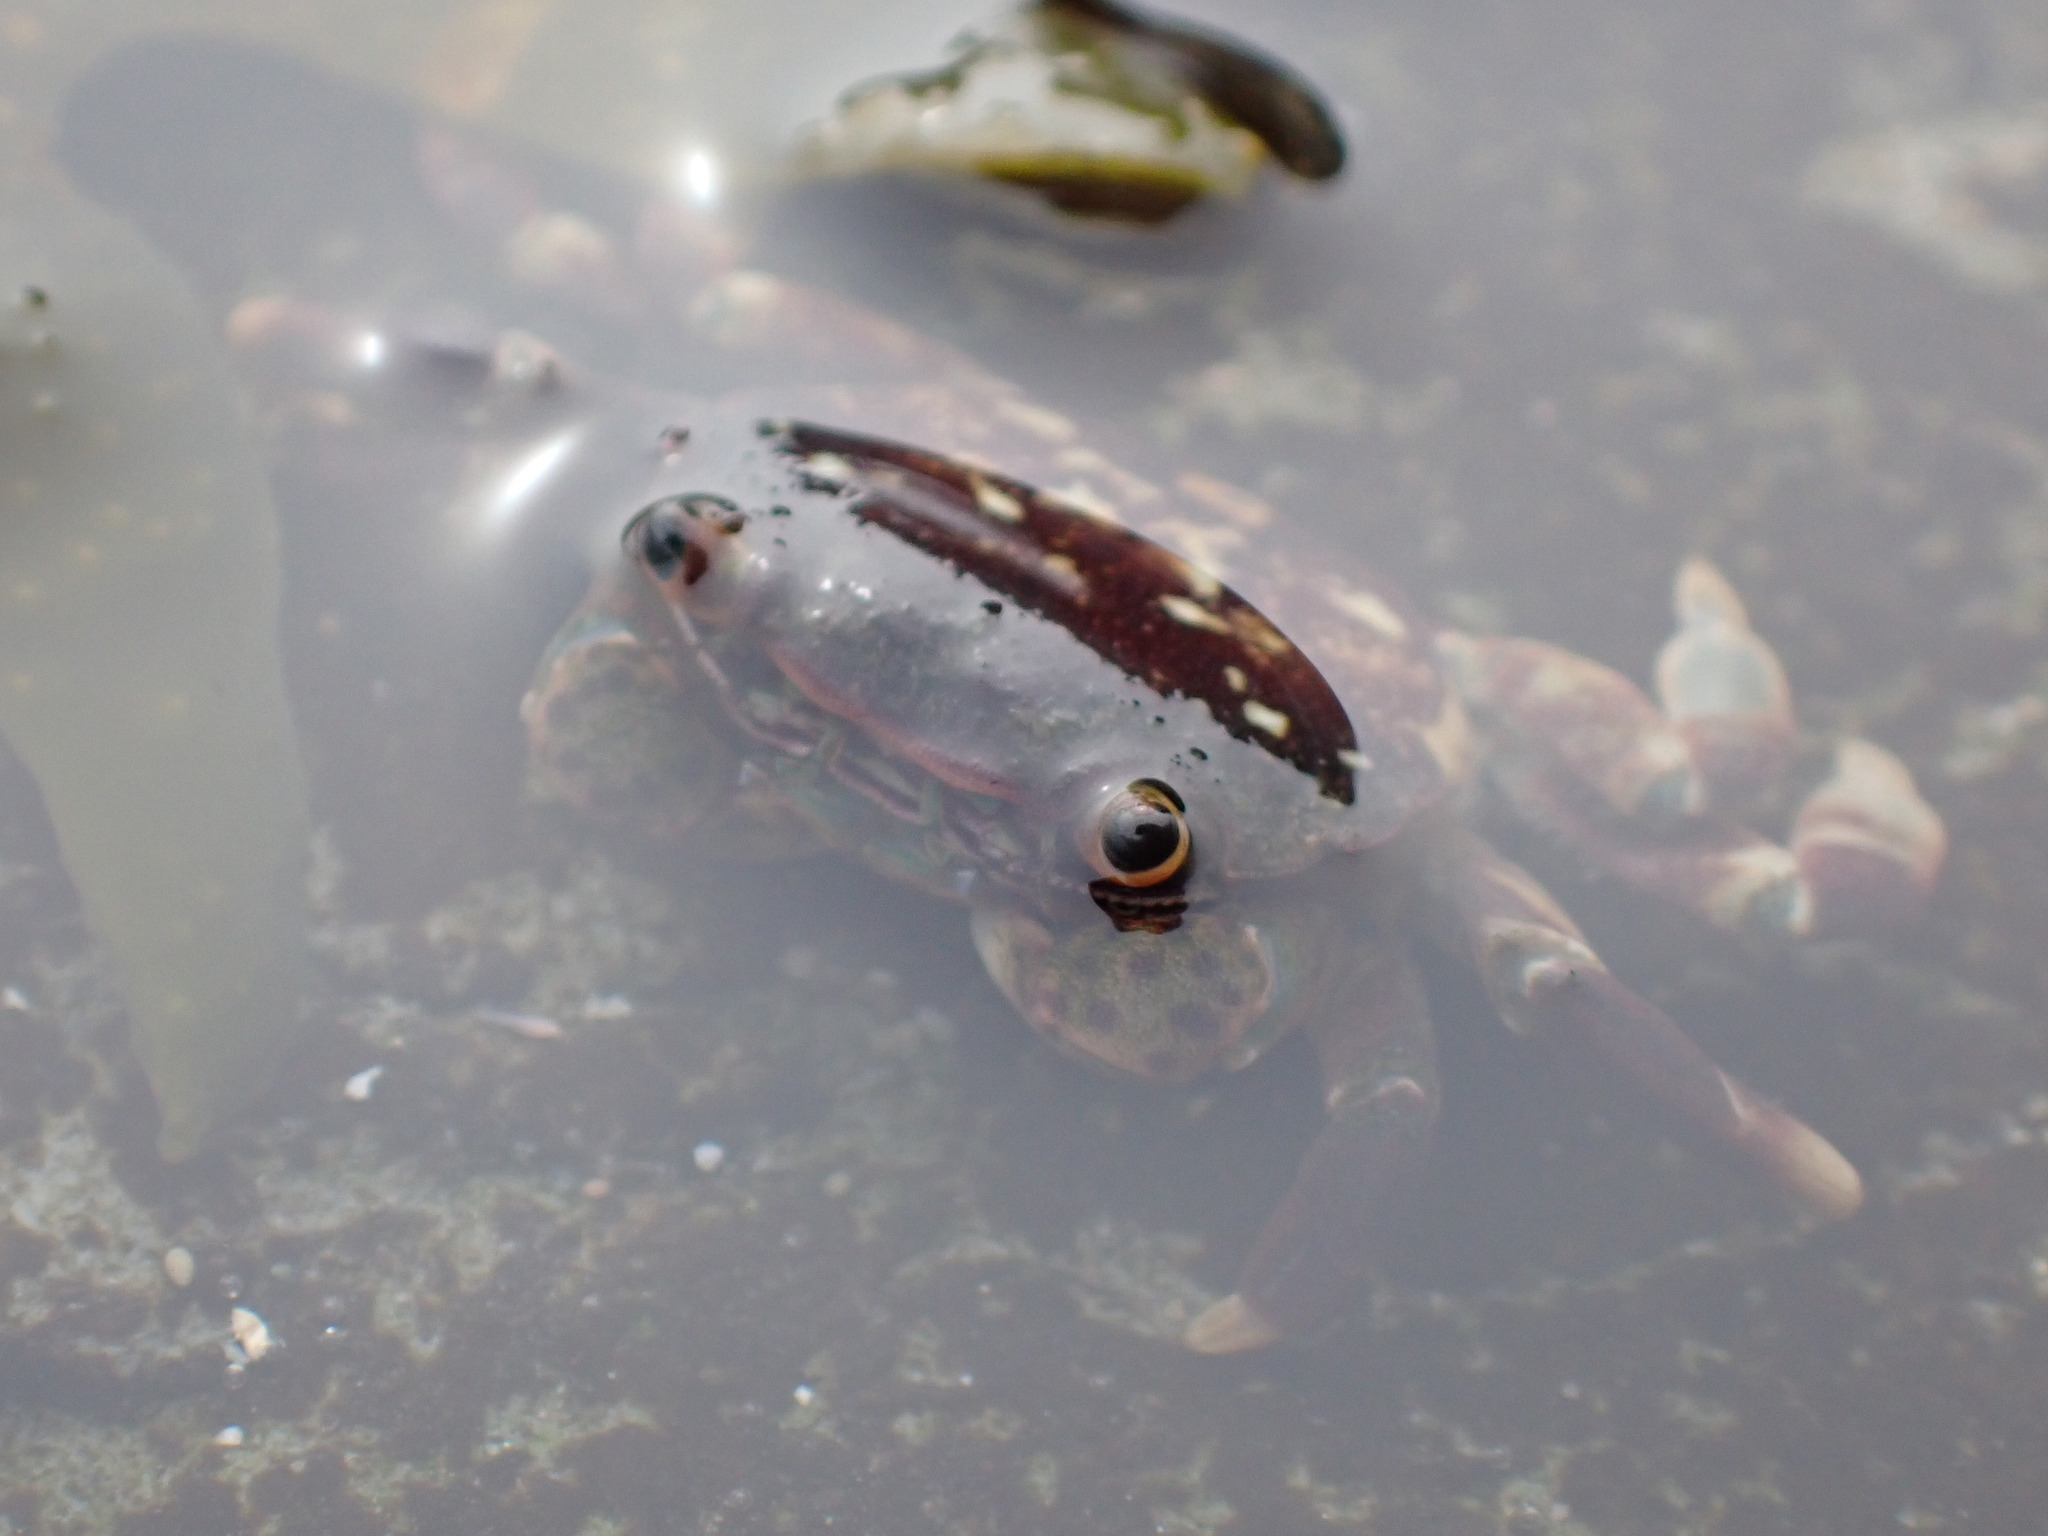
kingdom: Animalia
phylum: Arthropoda
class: Malacostraca
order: Decapoda
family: Varunidae
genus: Hemigrapsus
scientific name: Hemigrapsus nudus
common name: Purple shore crab
